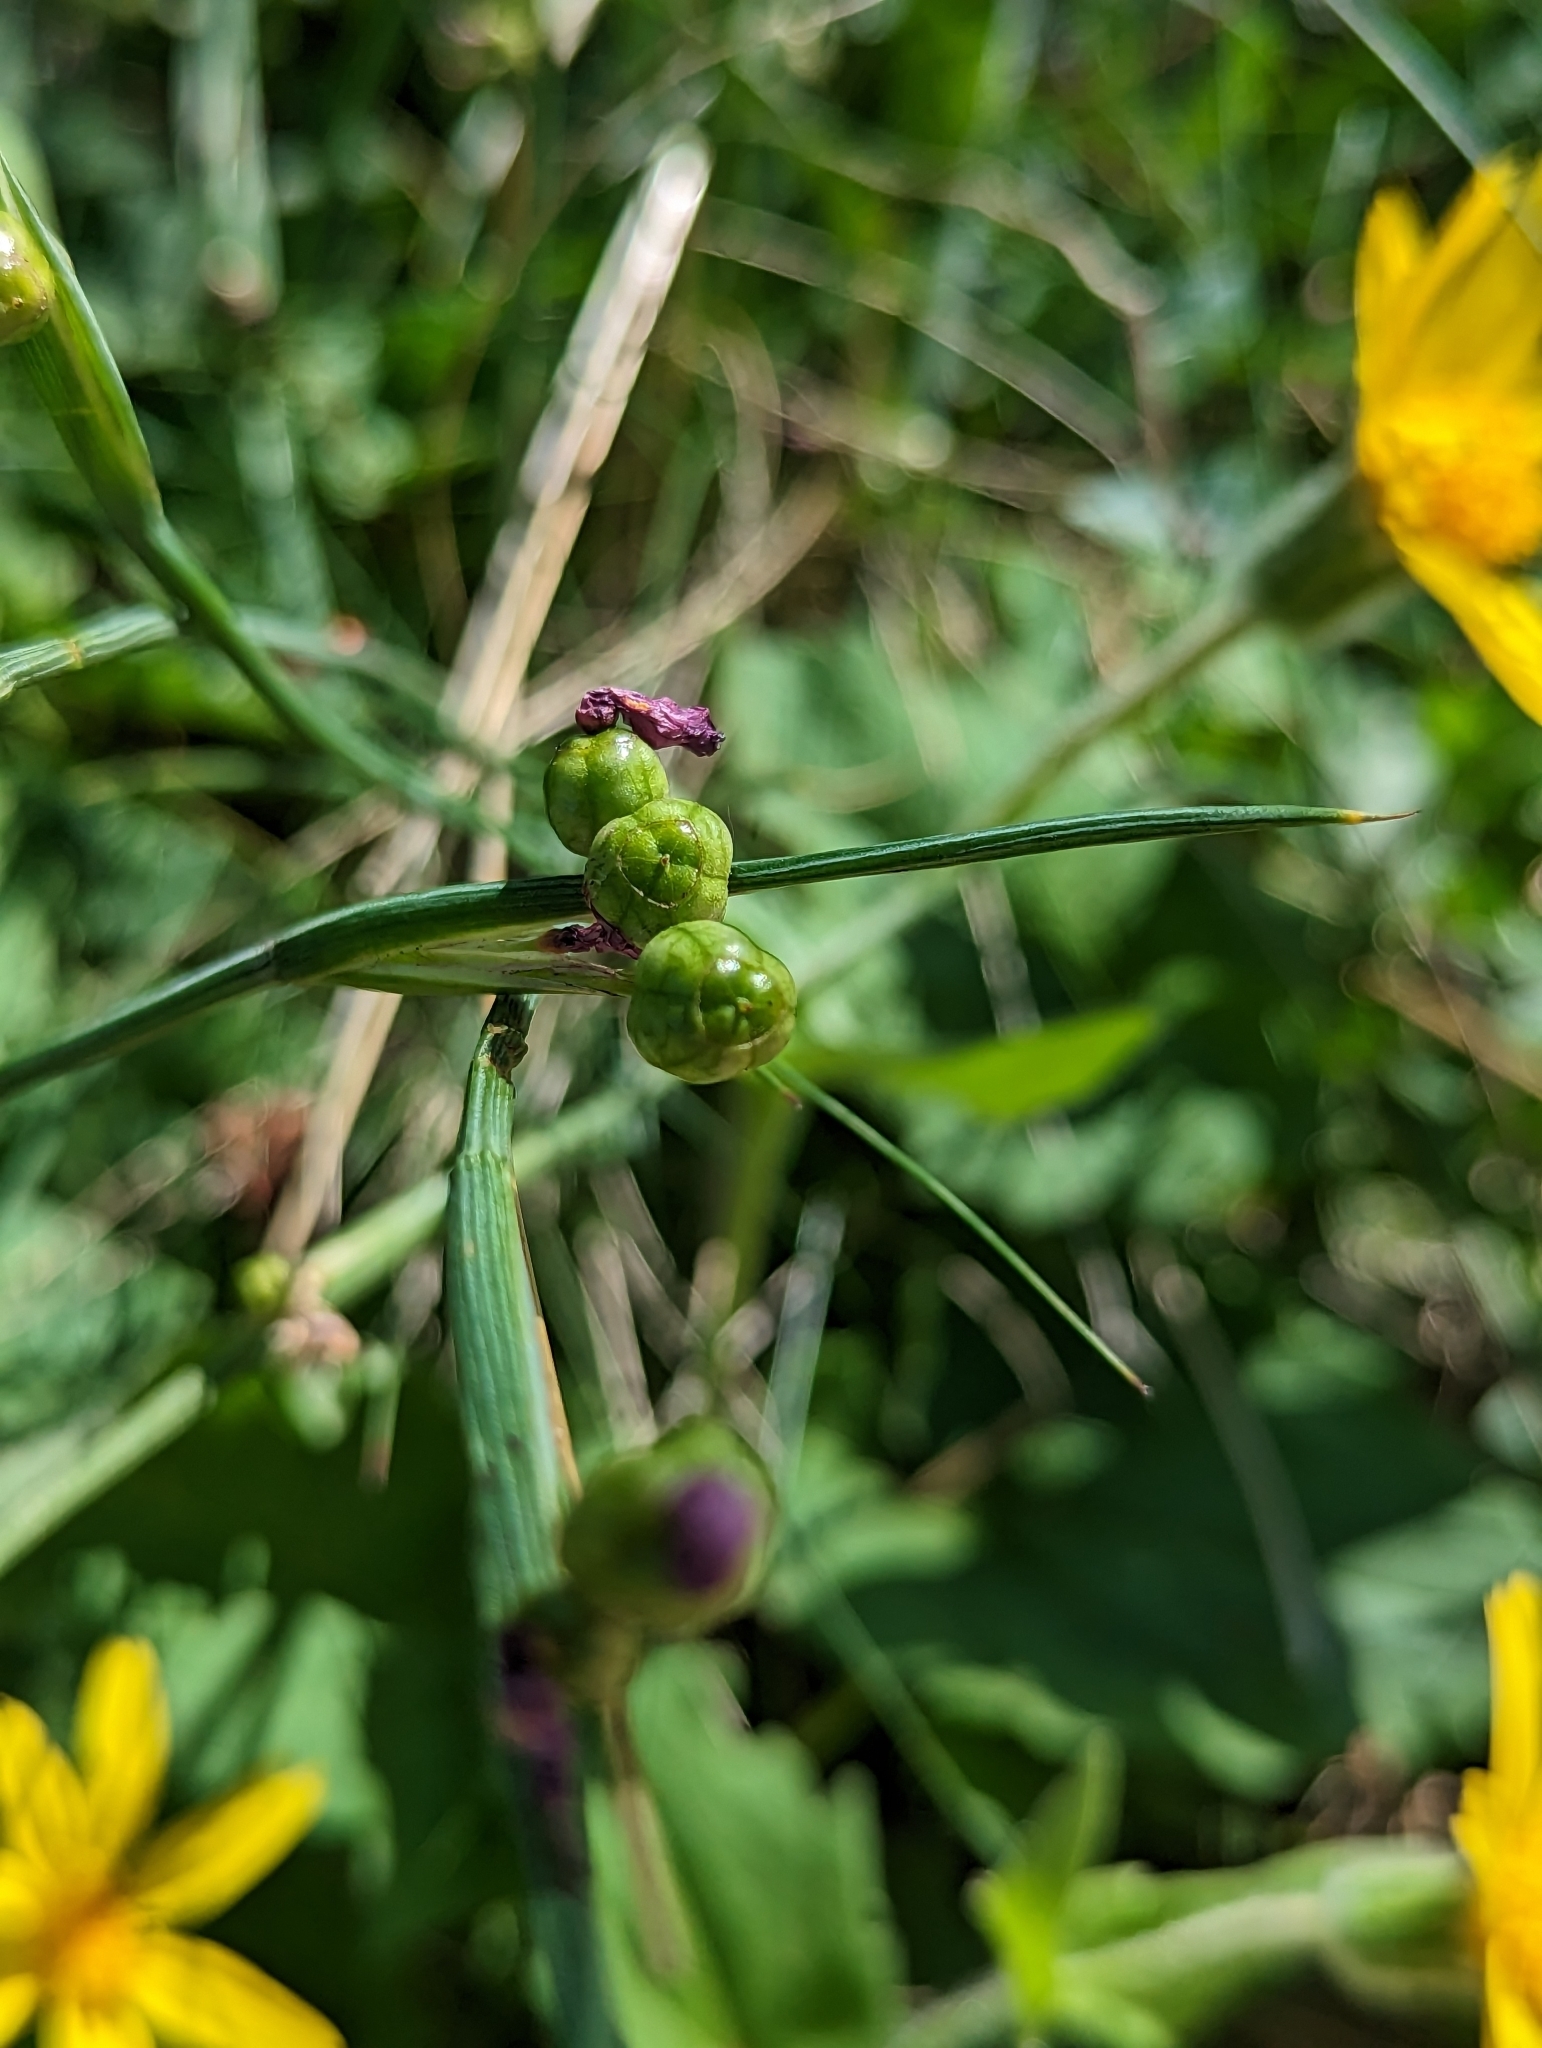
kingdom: Plantae
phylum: Tracheophyta
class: Liliopsida
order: Asparagales
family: Iridaceae
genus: Olsynium
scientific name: Olsynium douglasii
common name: Douglas' grasswidow
